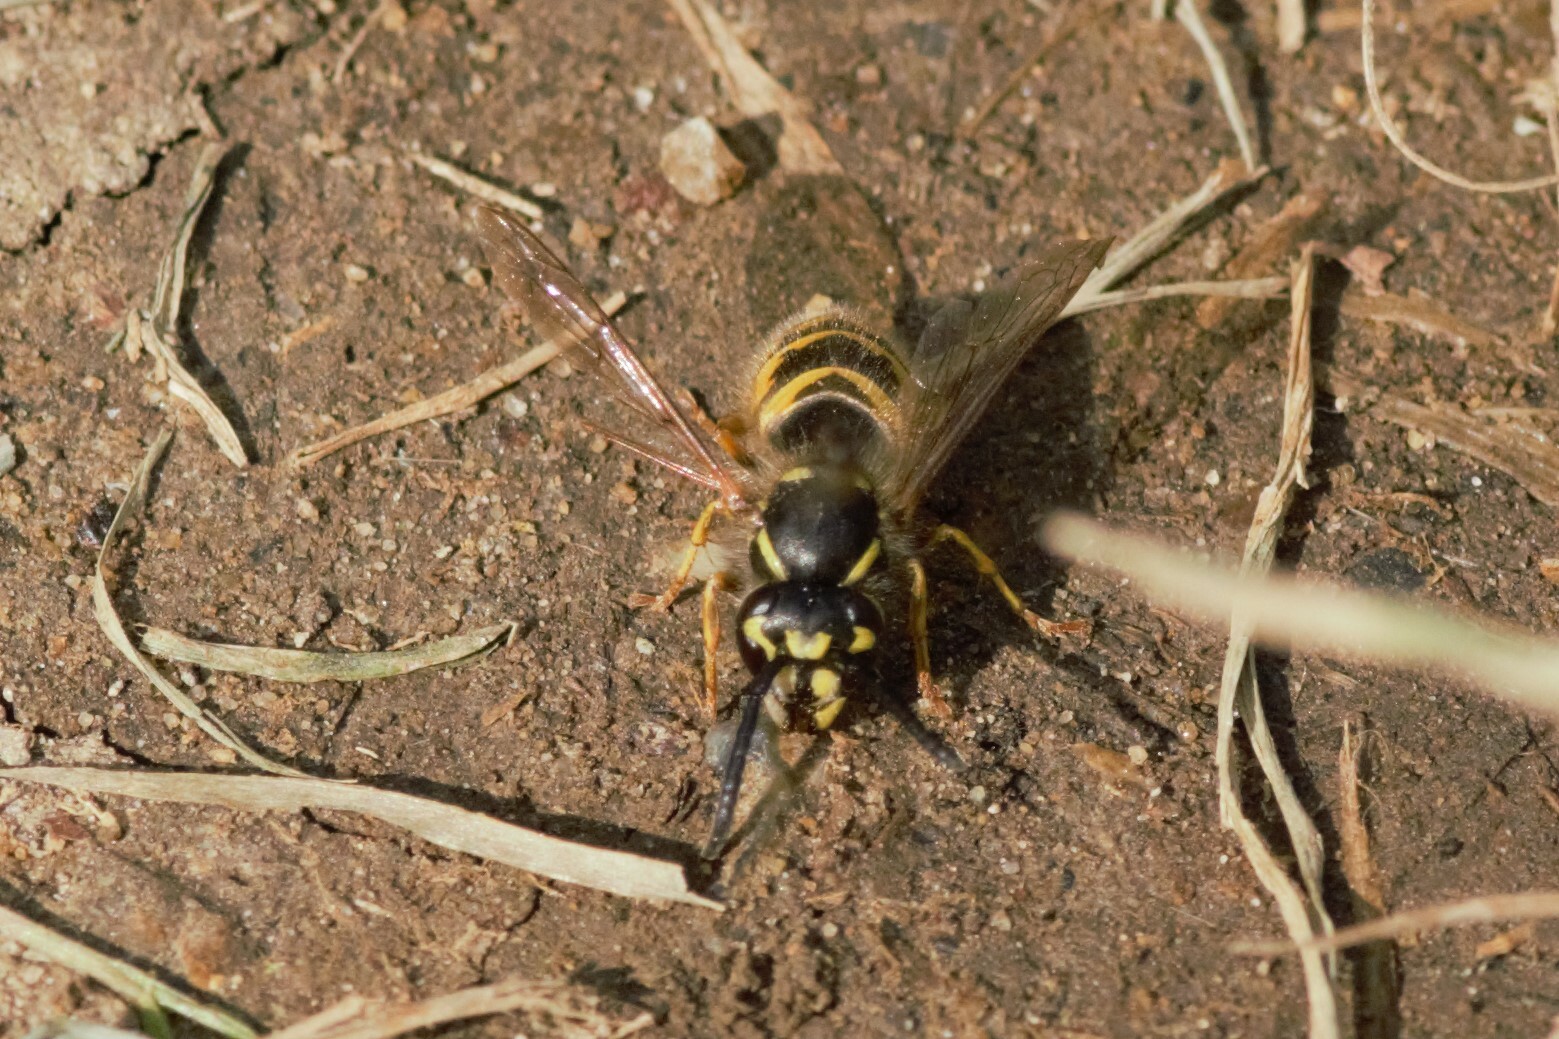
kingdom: Animalia
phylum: Arthropoda
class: Insecta
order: Hymenoptera
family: Vespidae
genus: Vespula
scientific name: Vespula vulgaris
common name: Common wasp
